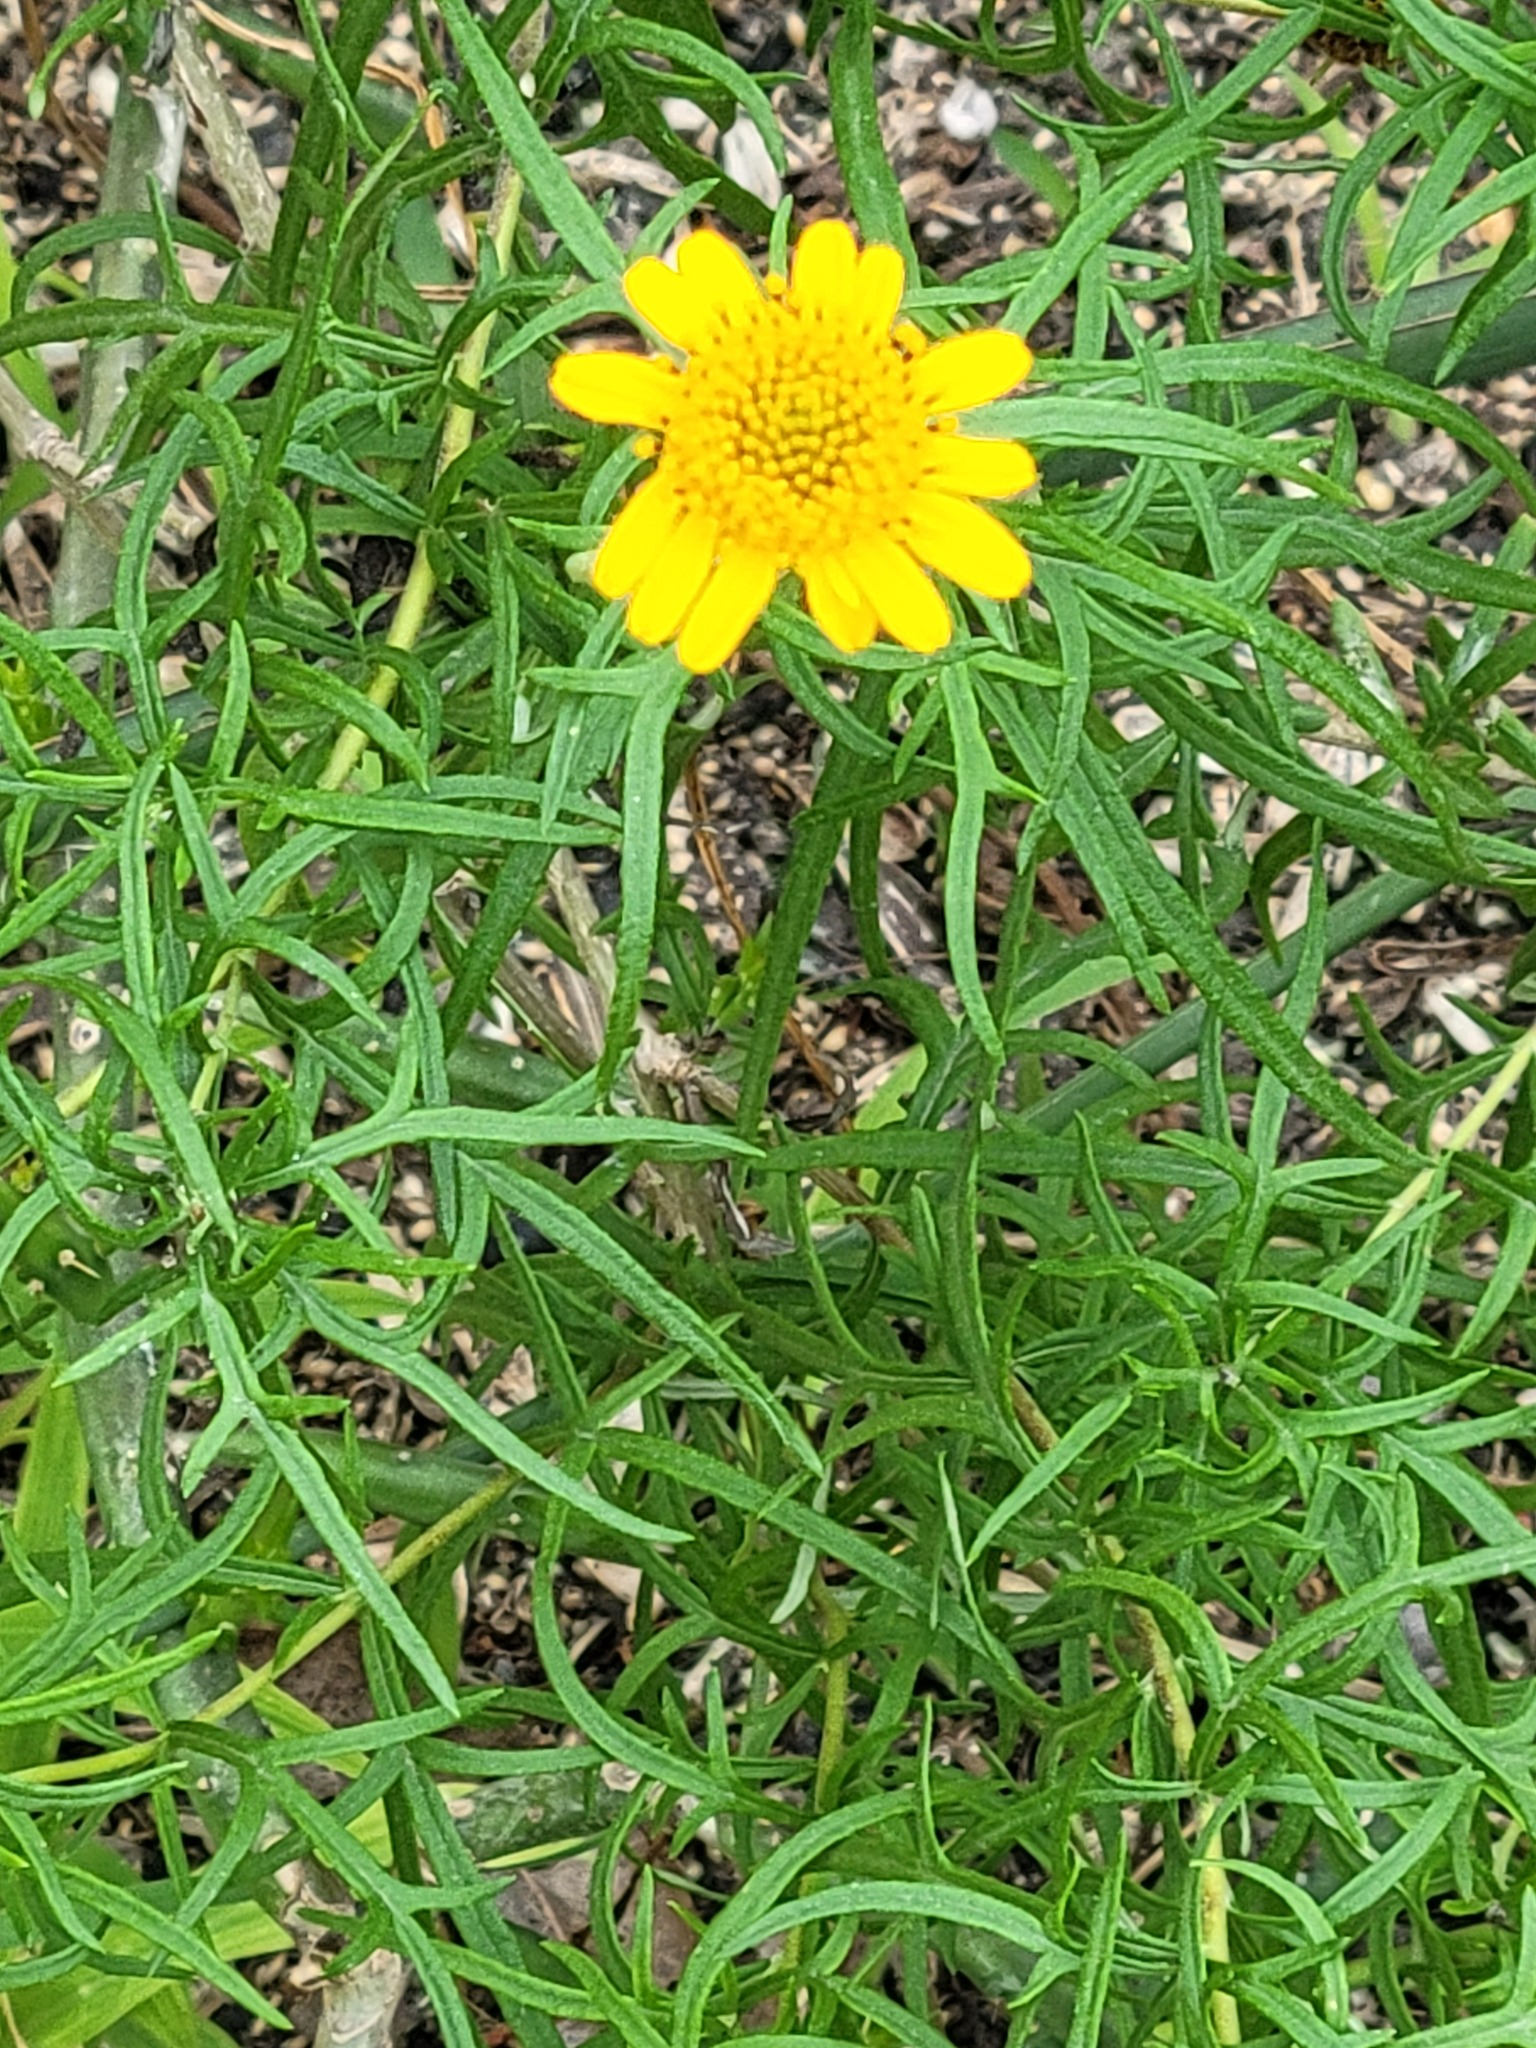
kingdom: Plantae
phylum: Tracheophyta
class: Magnoliopsida
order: Asterales
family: Asteraceae
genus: Sidneya
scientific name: Sidneya tenuifolia
